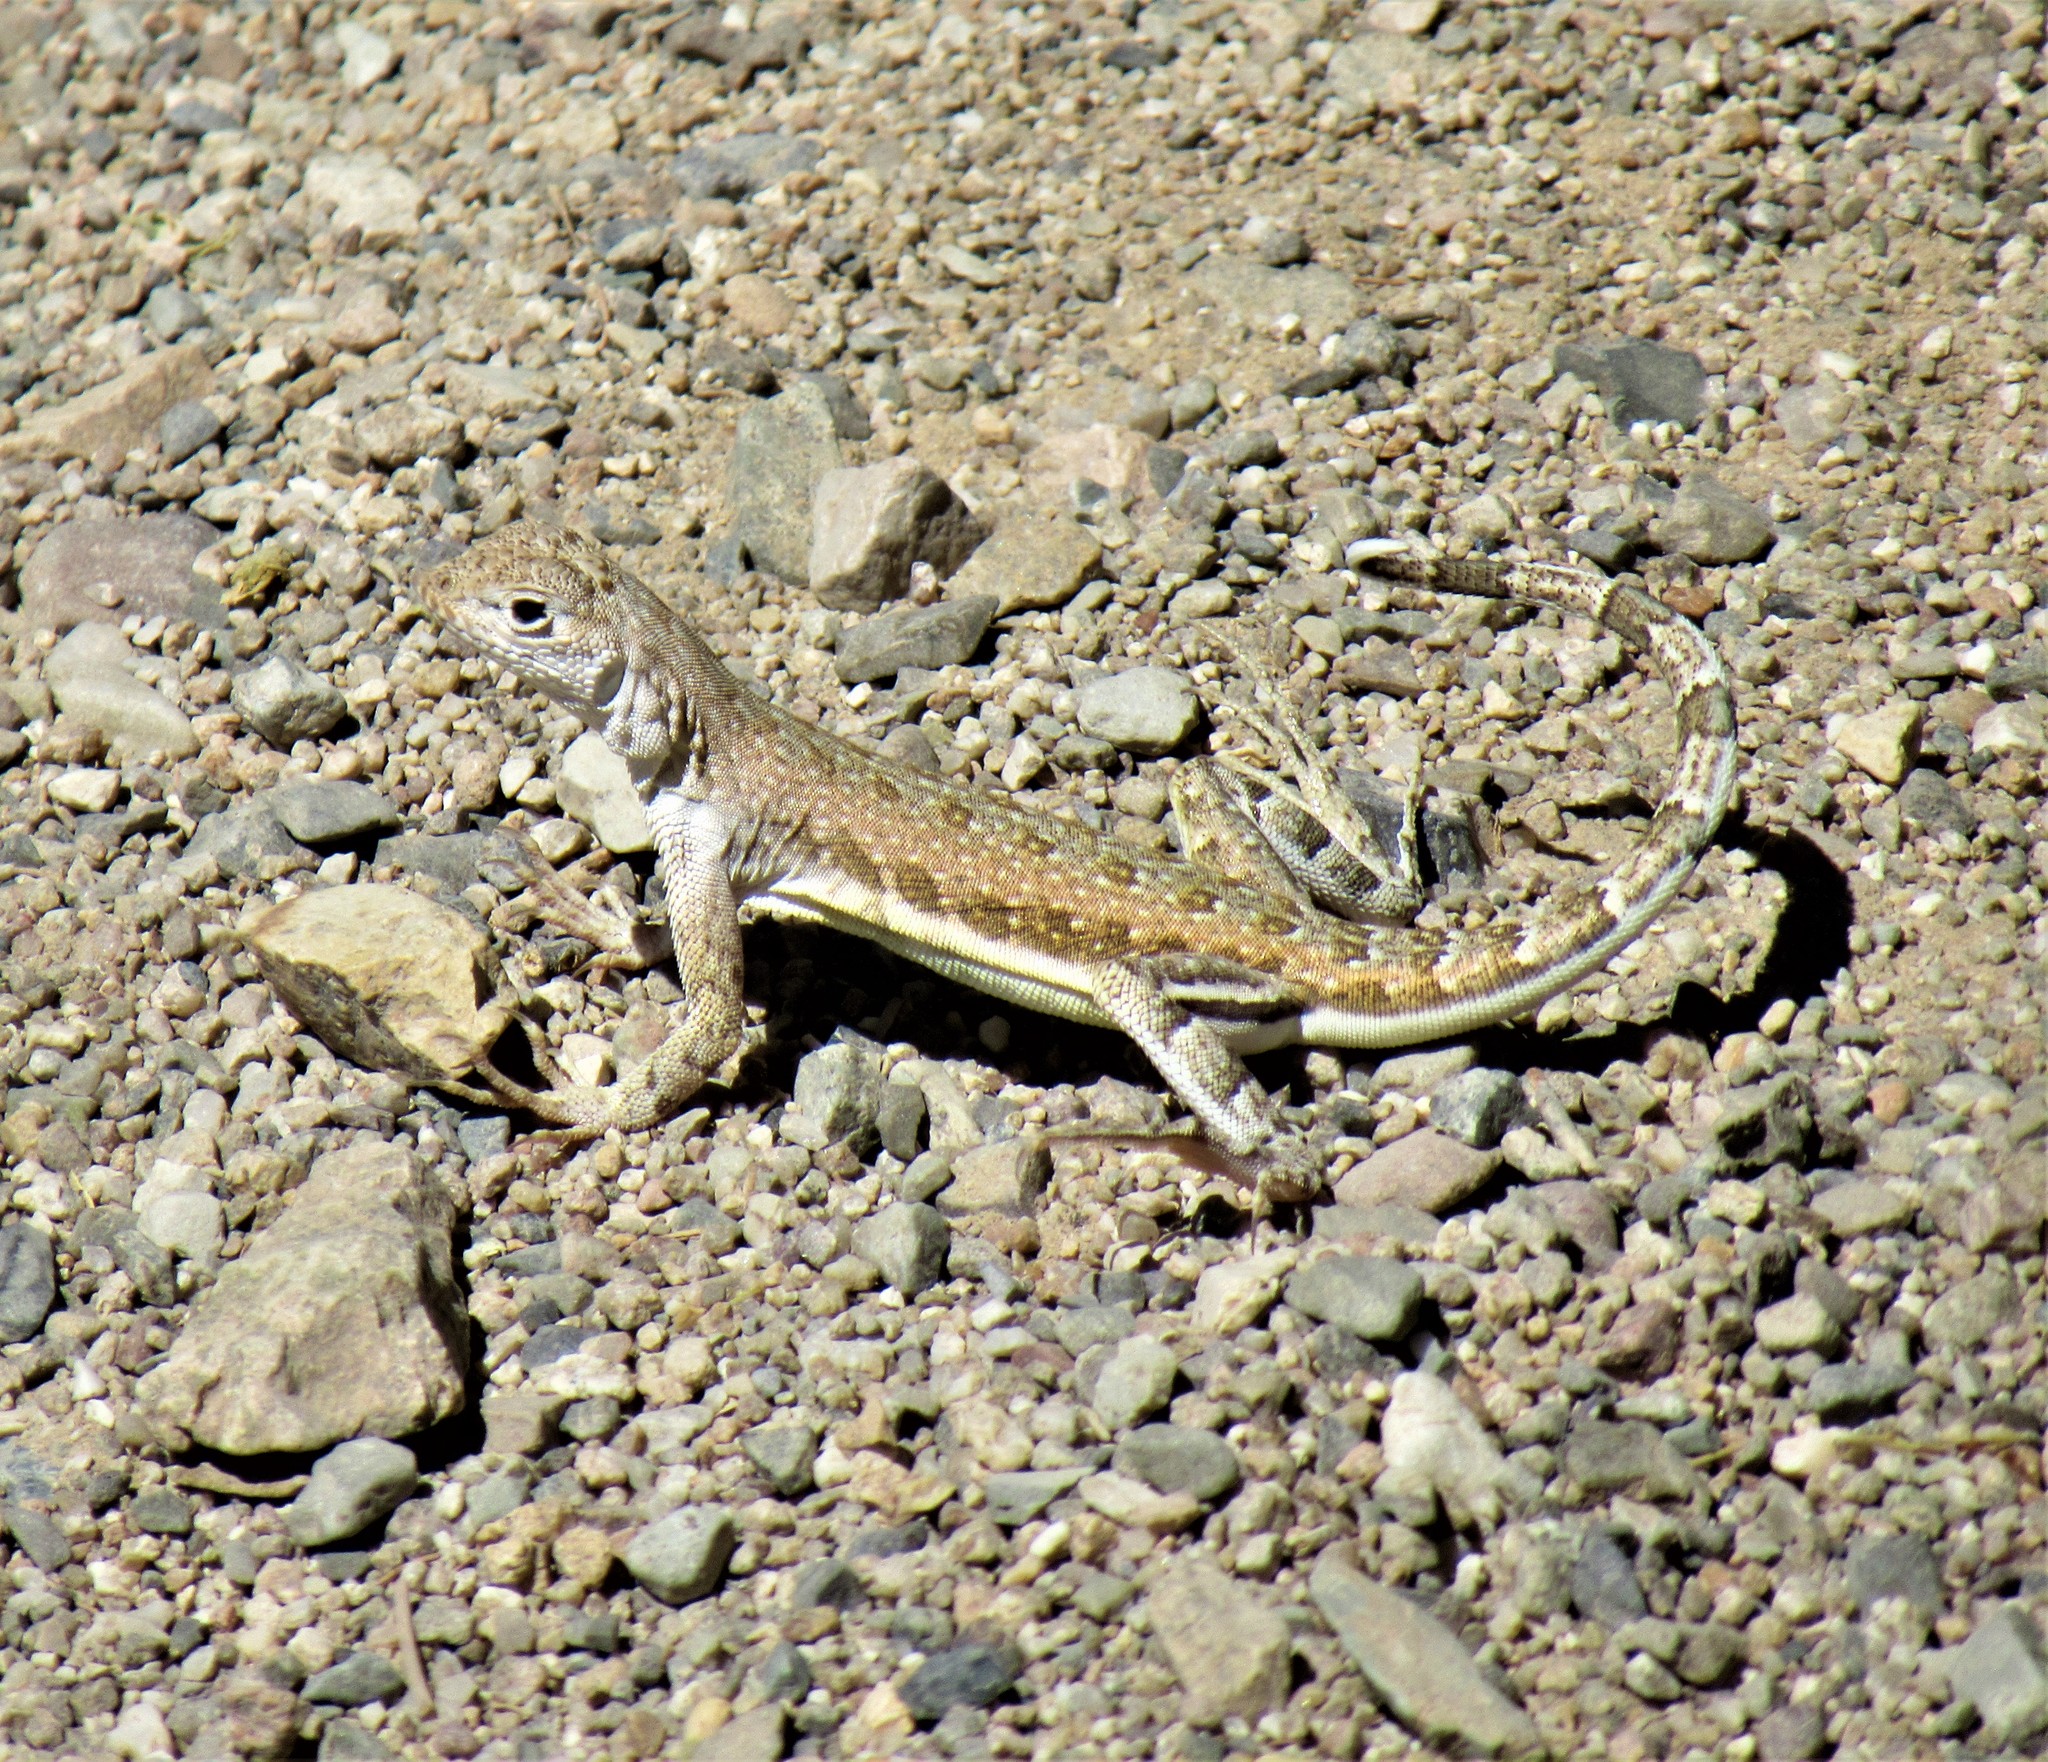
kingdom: Animalia
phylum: Chordata
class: Squamata
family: Phrynosomatidae
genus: Callisaurus
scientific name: Callisaurus draconoides
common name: Zebra-tailed lizard
